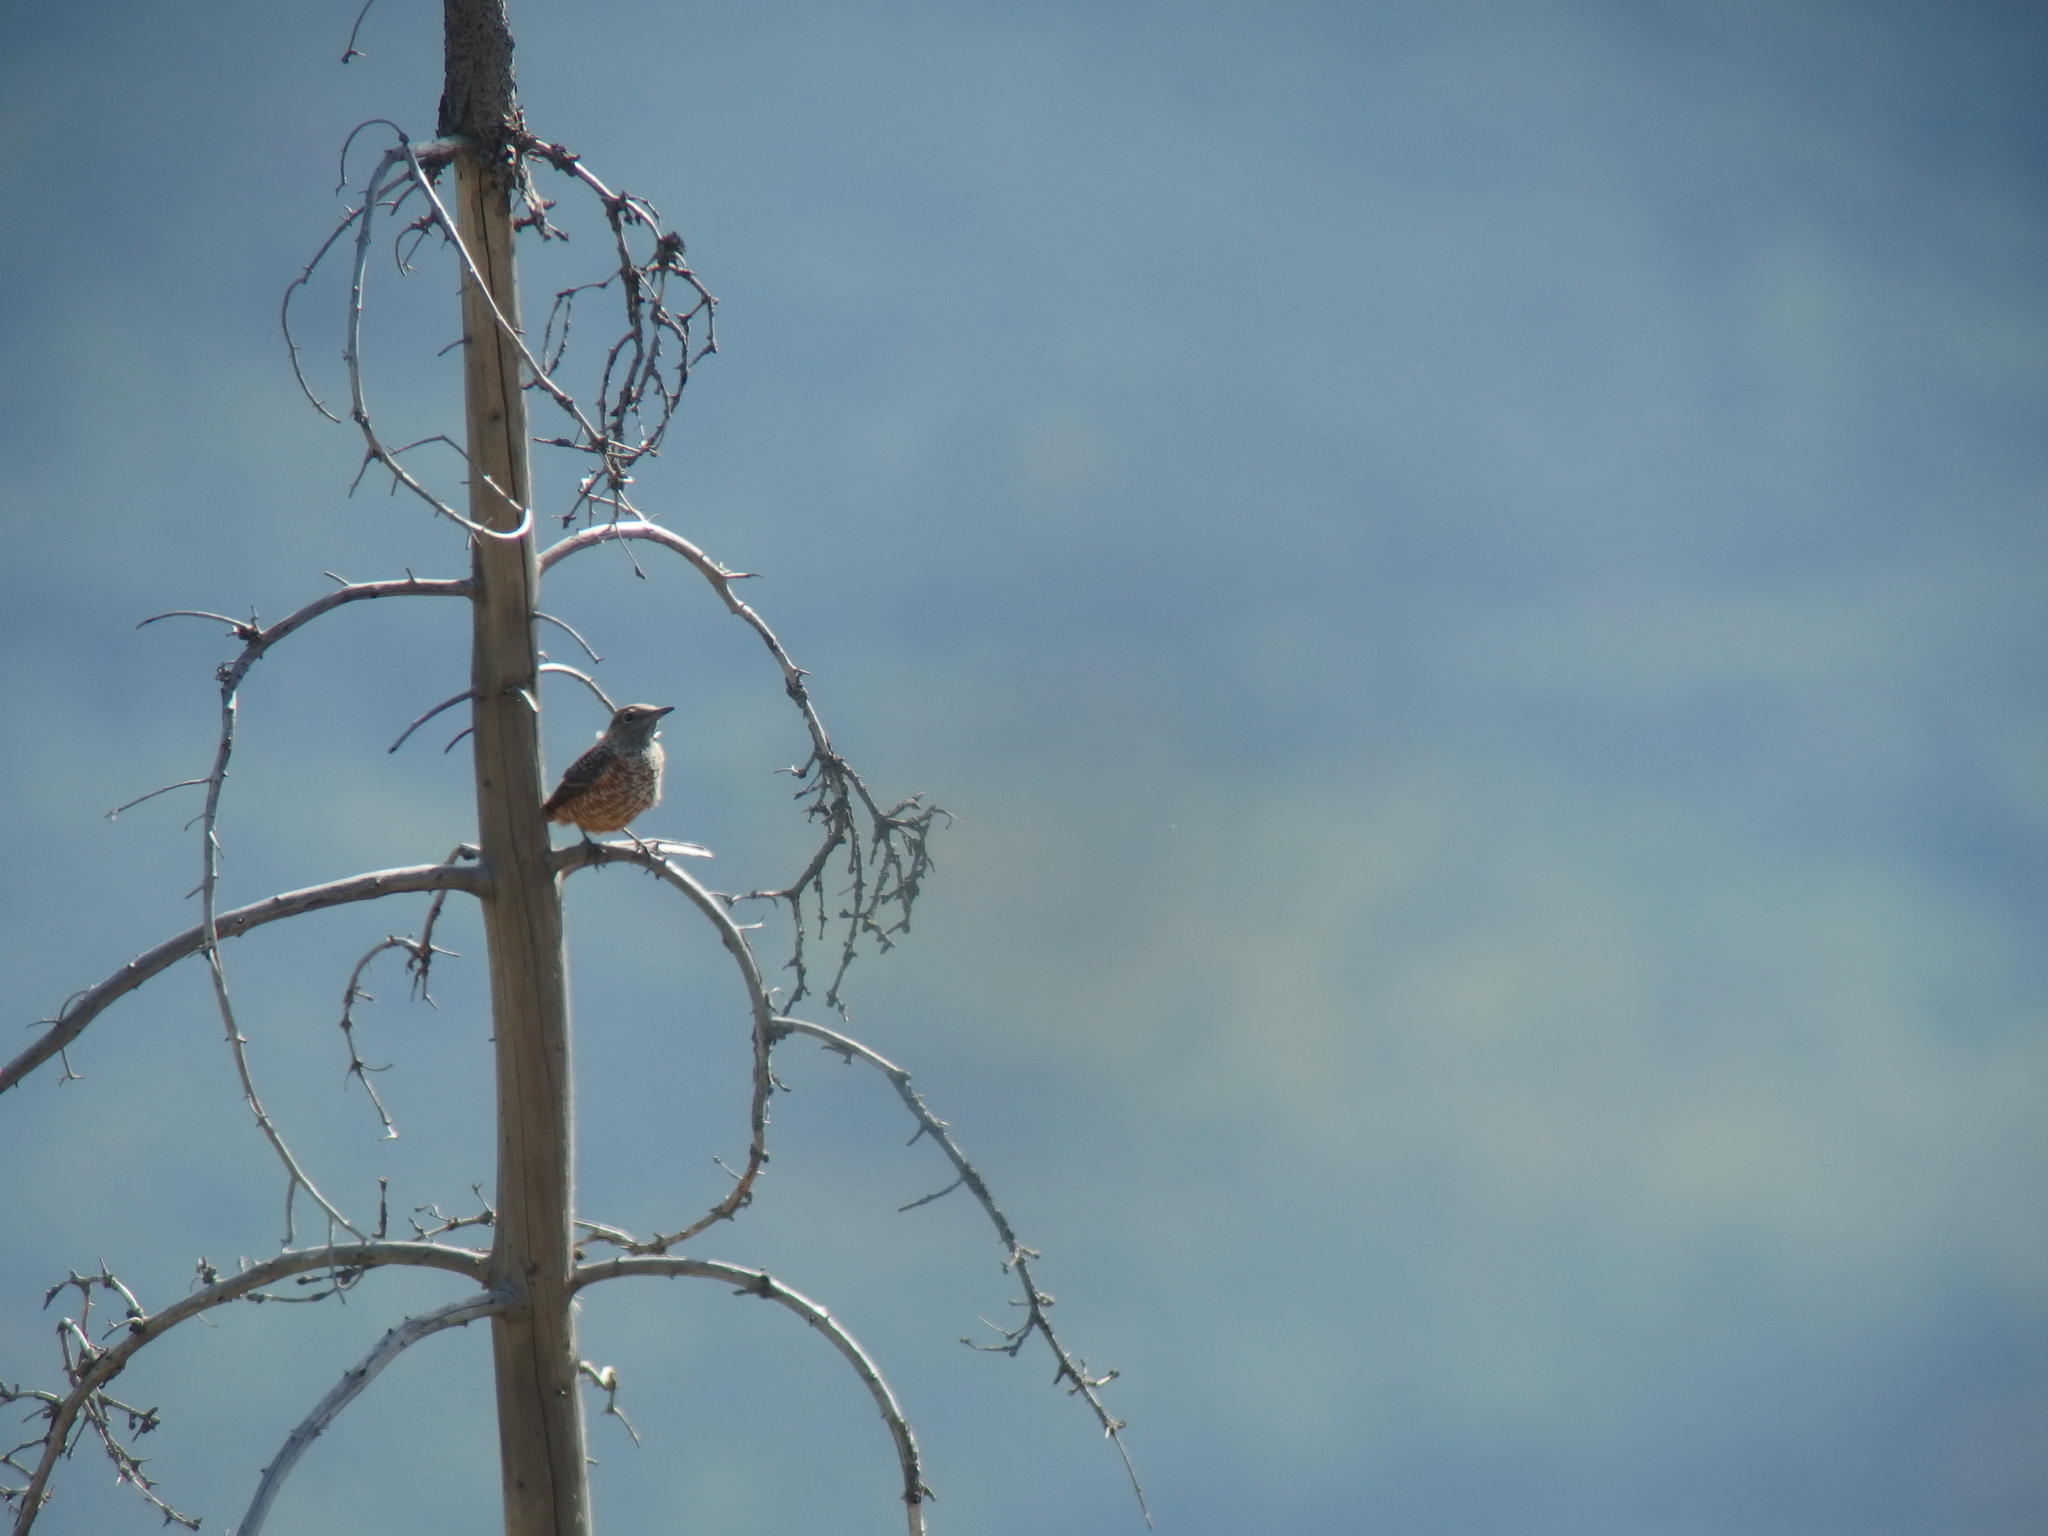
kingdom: Animalia
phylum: Chordata
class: Aves
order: Passeriformes
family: Muscicapidae
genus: Monticola
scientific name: Monticola saxatilis
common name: Rufous-tailed rock thrush
